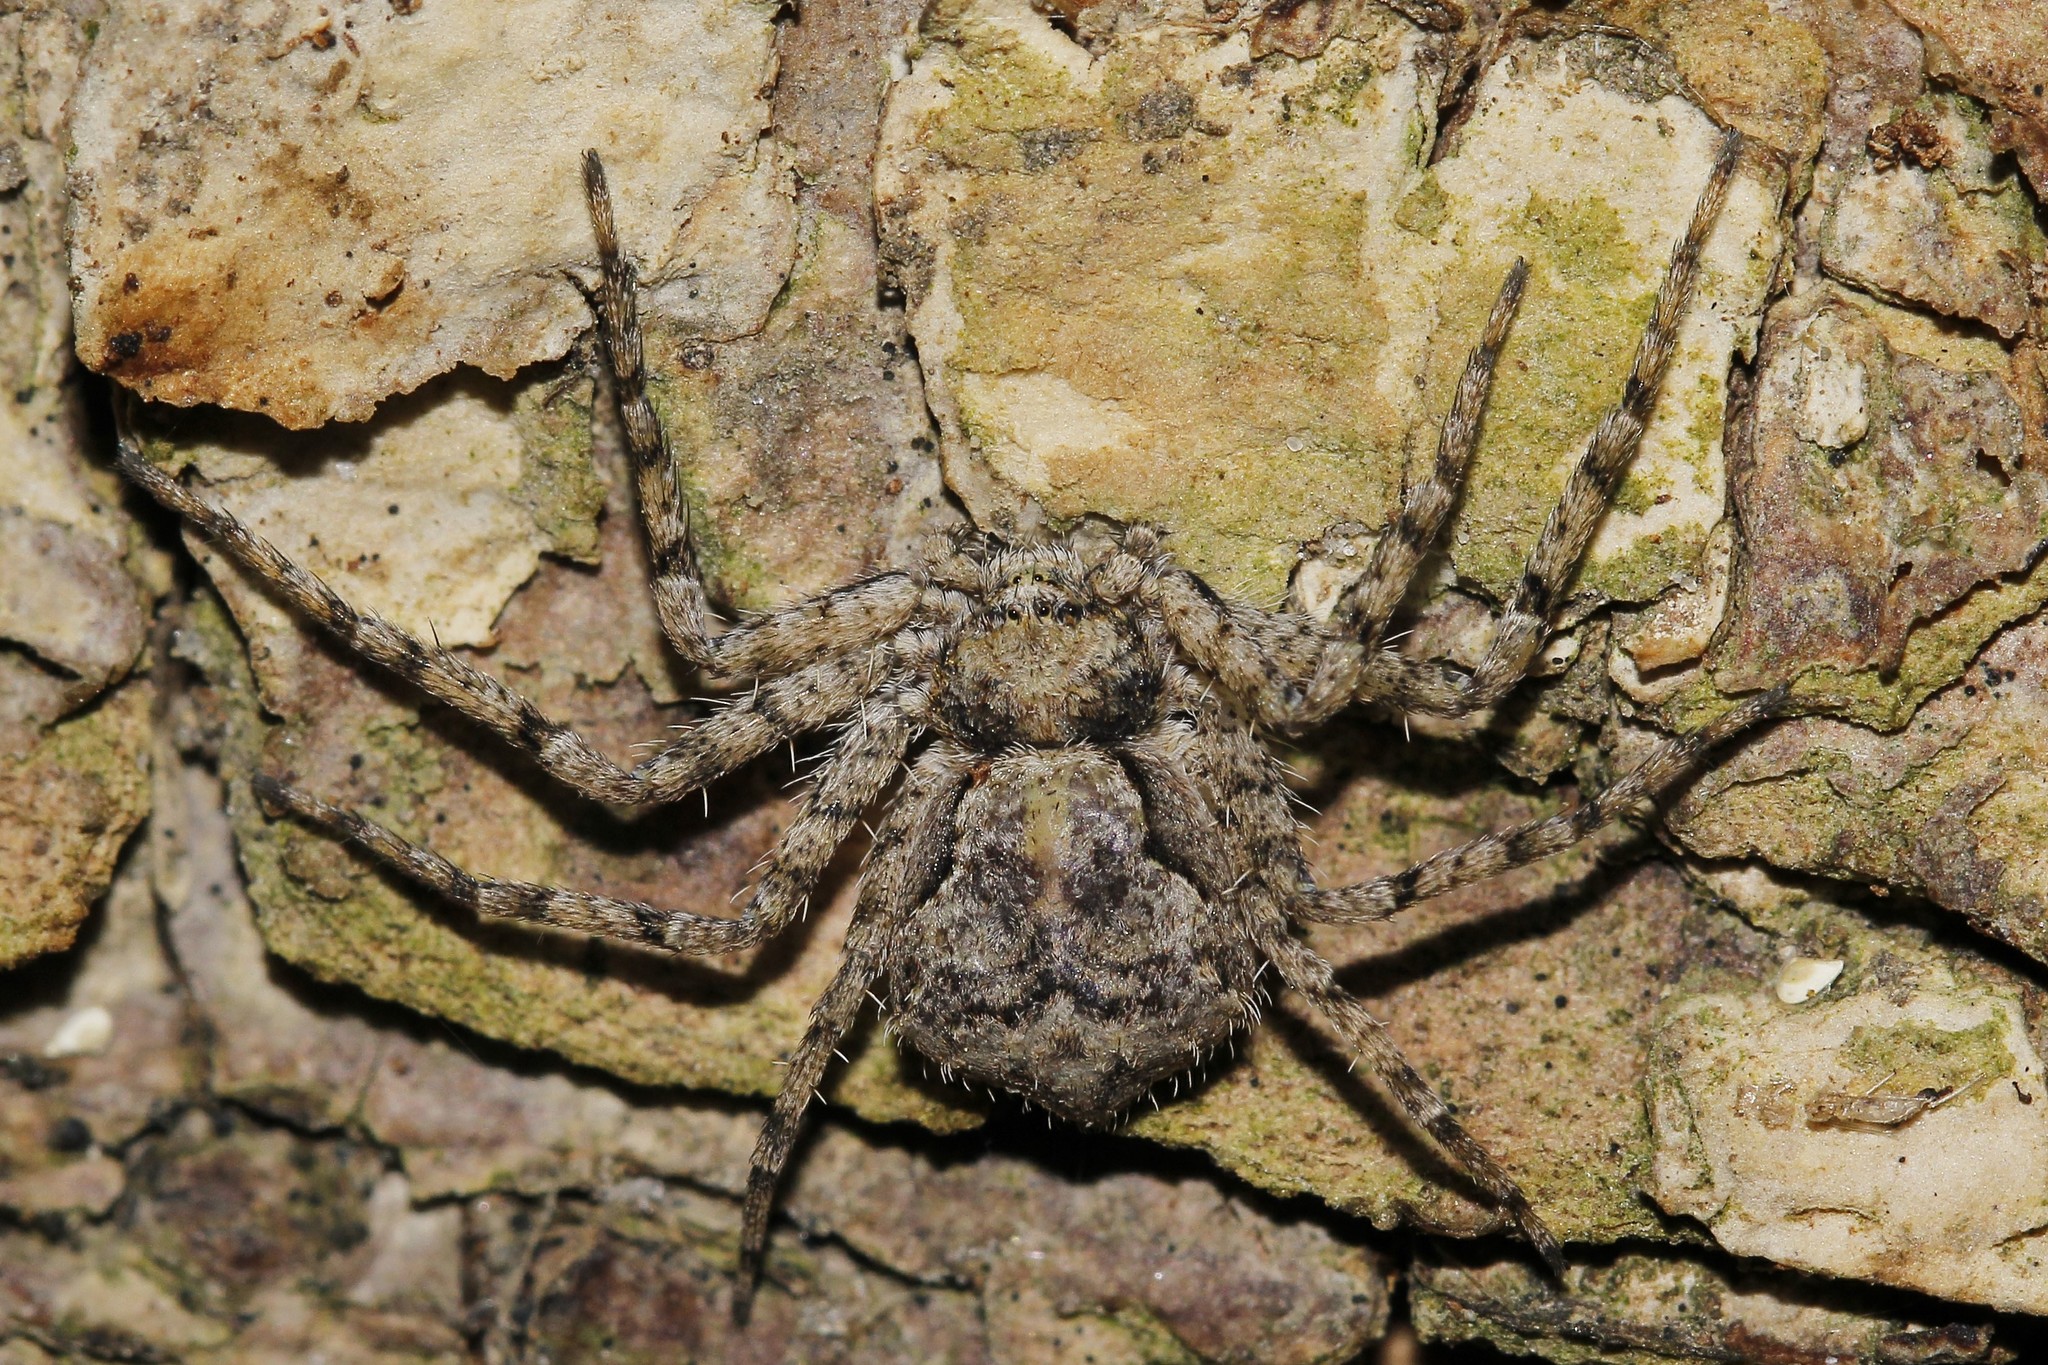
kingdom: Animalia
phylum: Arthropoda
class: Arachnida
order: Araneae
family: Philodromidae
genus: Philodromus
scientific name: Philodromus poecilus
